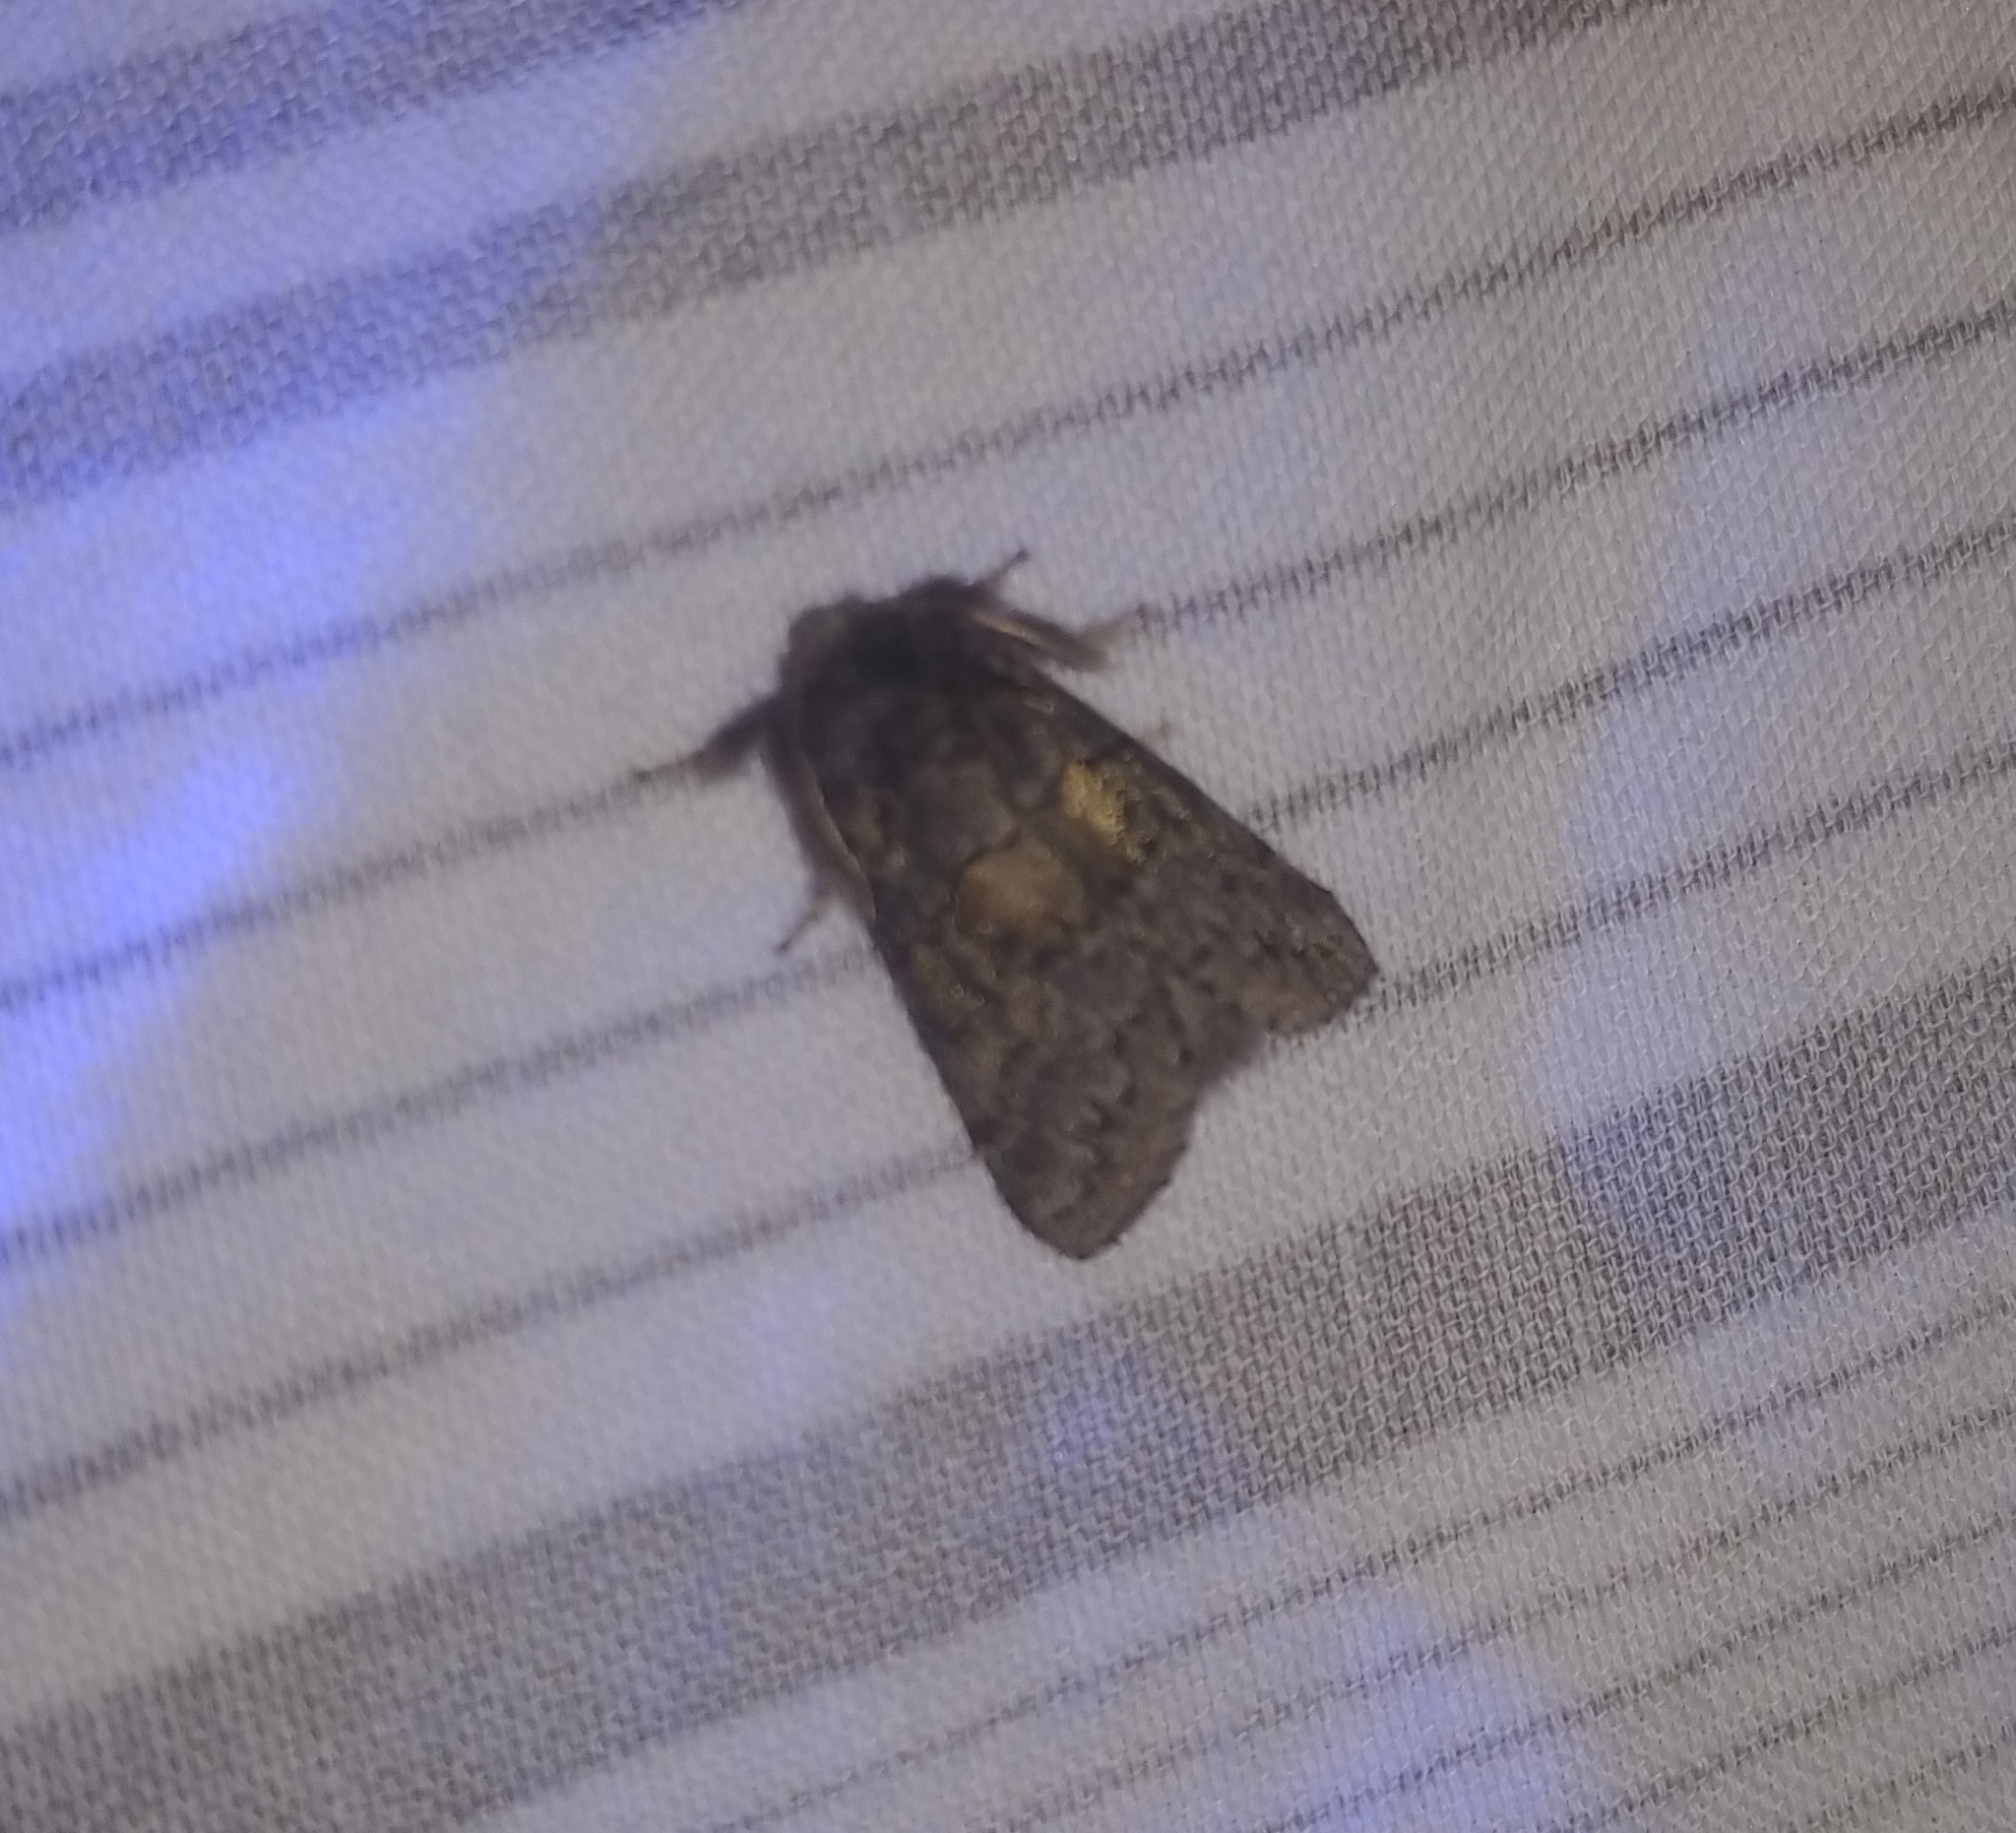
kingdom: Animalia
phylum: Arthropoda
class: Insecta
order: Lepidoptera
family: Notodontidae
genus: Gluphisia
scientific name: Gluphisia septentrionis
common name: Common gluphisia
